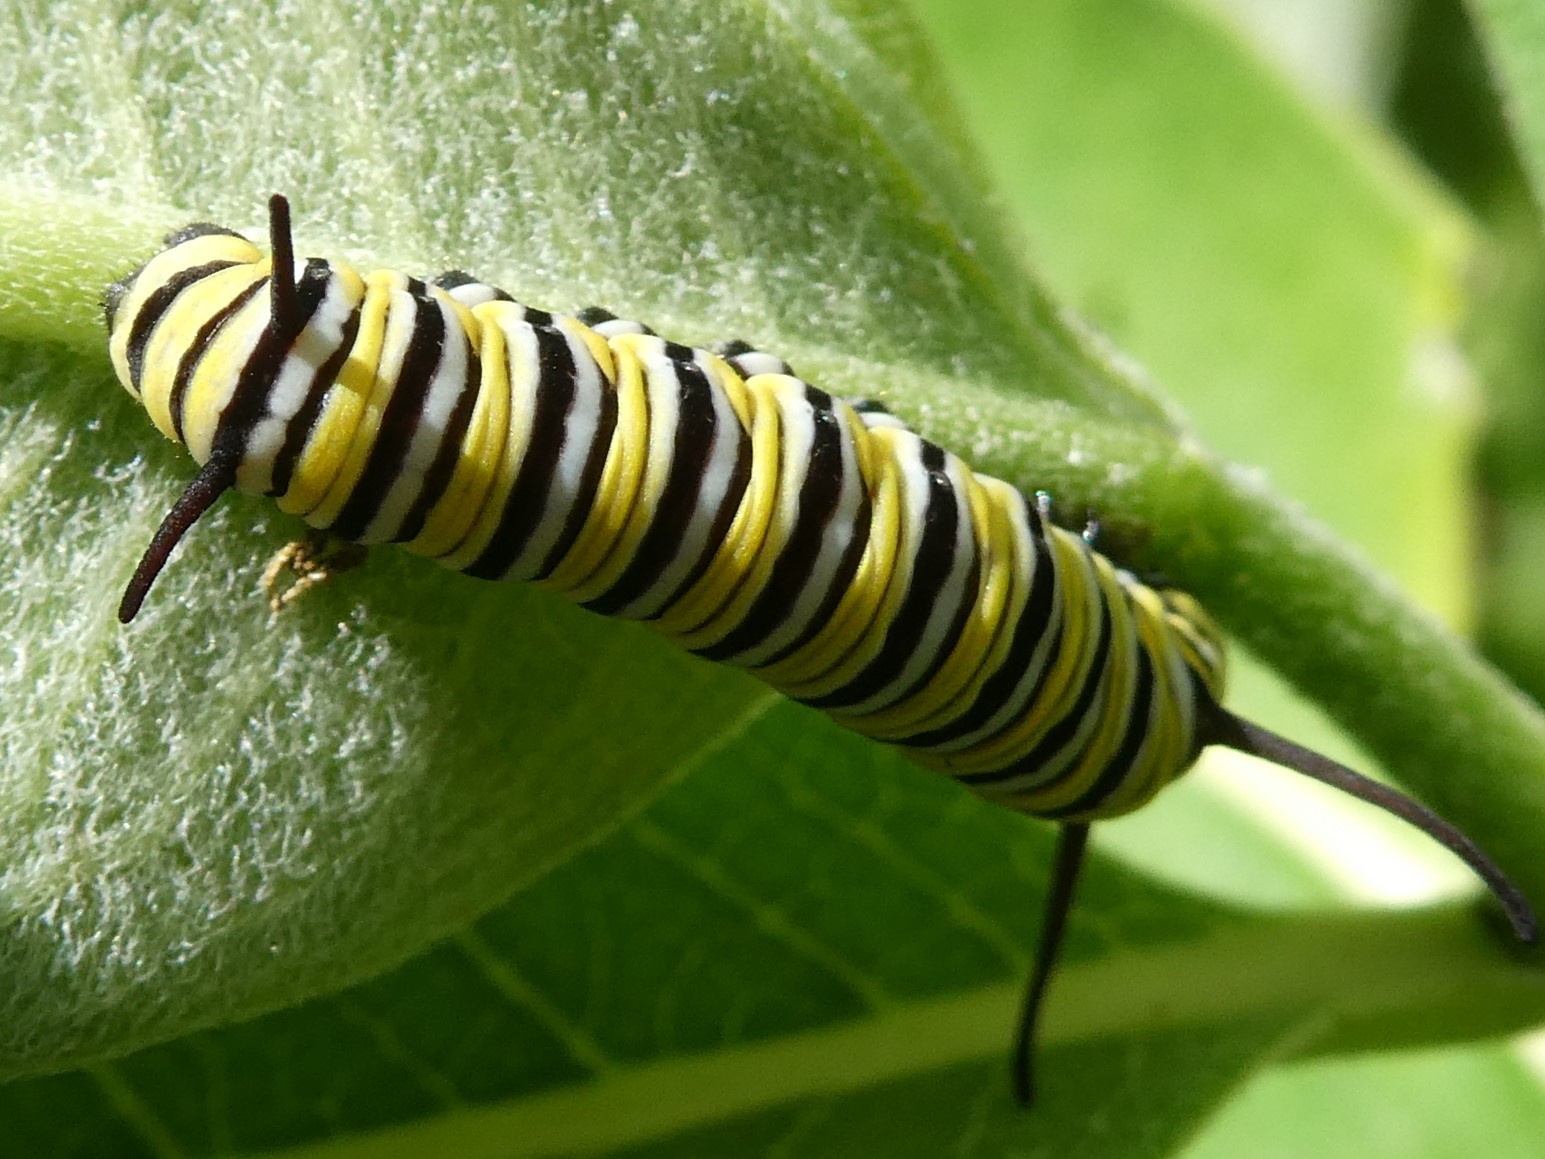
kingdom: Animalia
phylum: Arthropoda
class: Insecta
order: Lepidoptera
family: Nymphalidae
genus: Danaus
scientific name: Danaus plexippus
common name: Monarch
